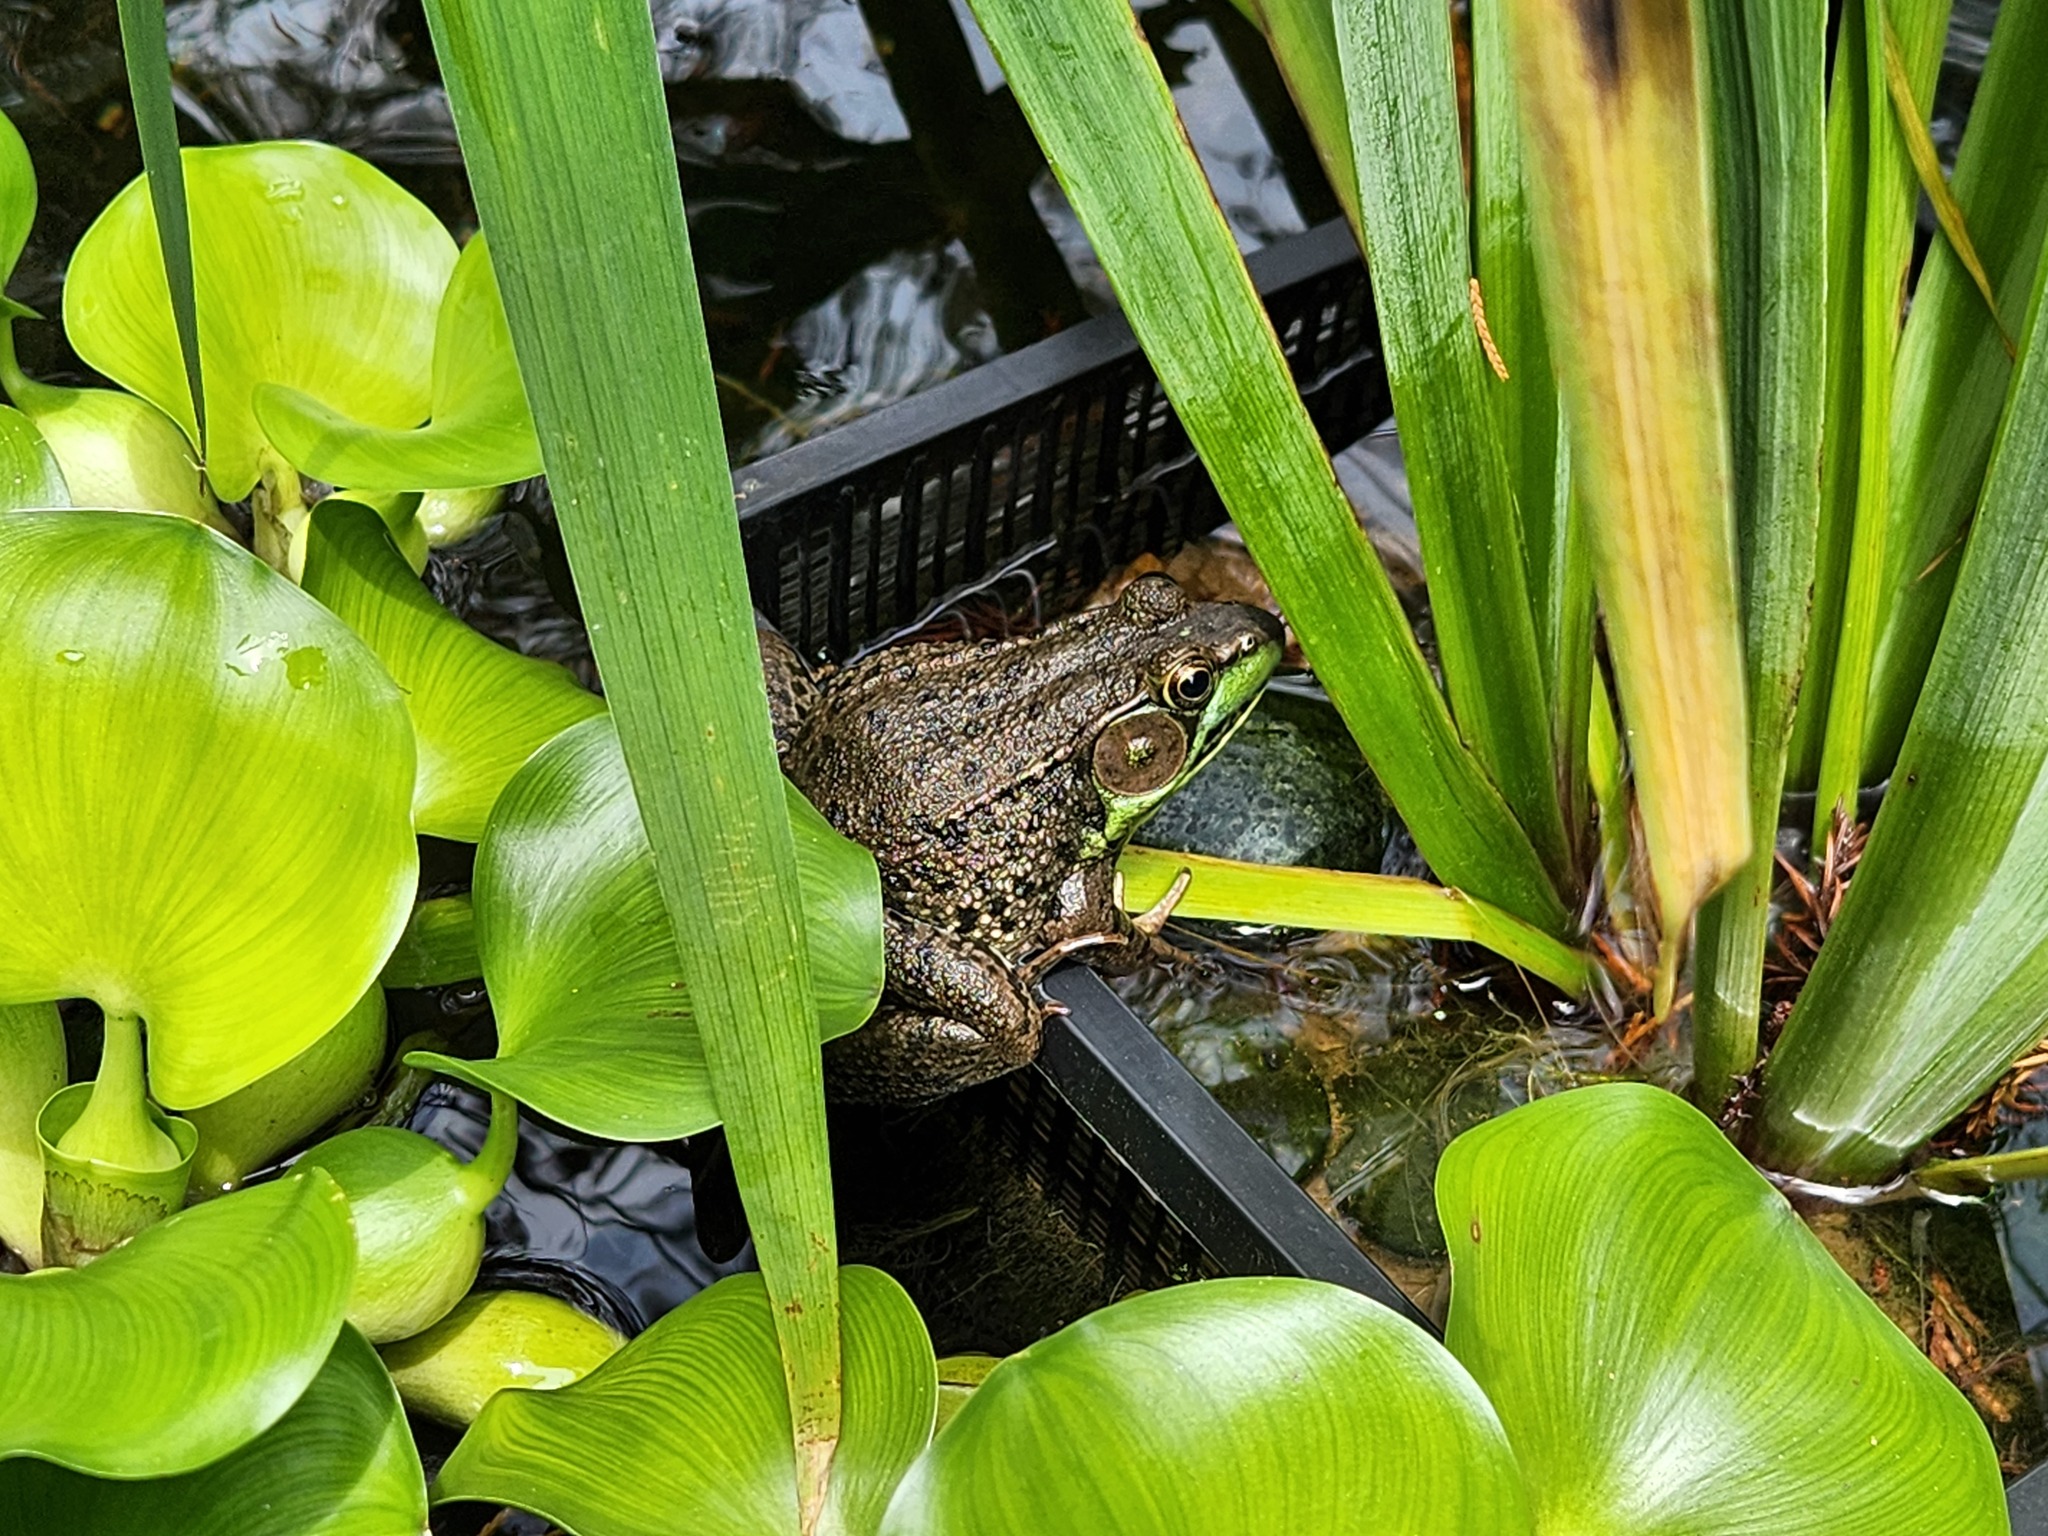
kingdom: Animalia
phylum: Chordata
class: Amphibia
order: Anura
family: Ranidae
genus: Lithobates
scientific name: Lithobates clamitans
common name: Green frog
